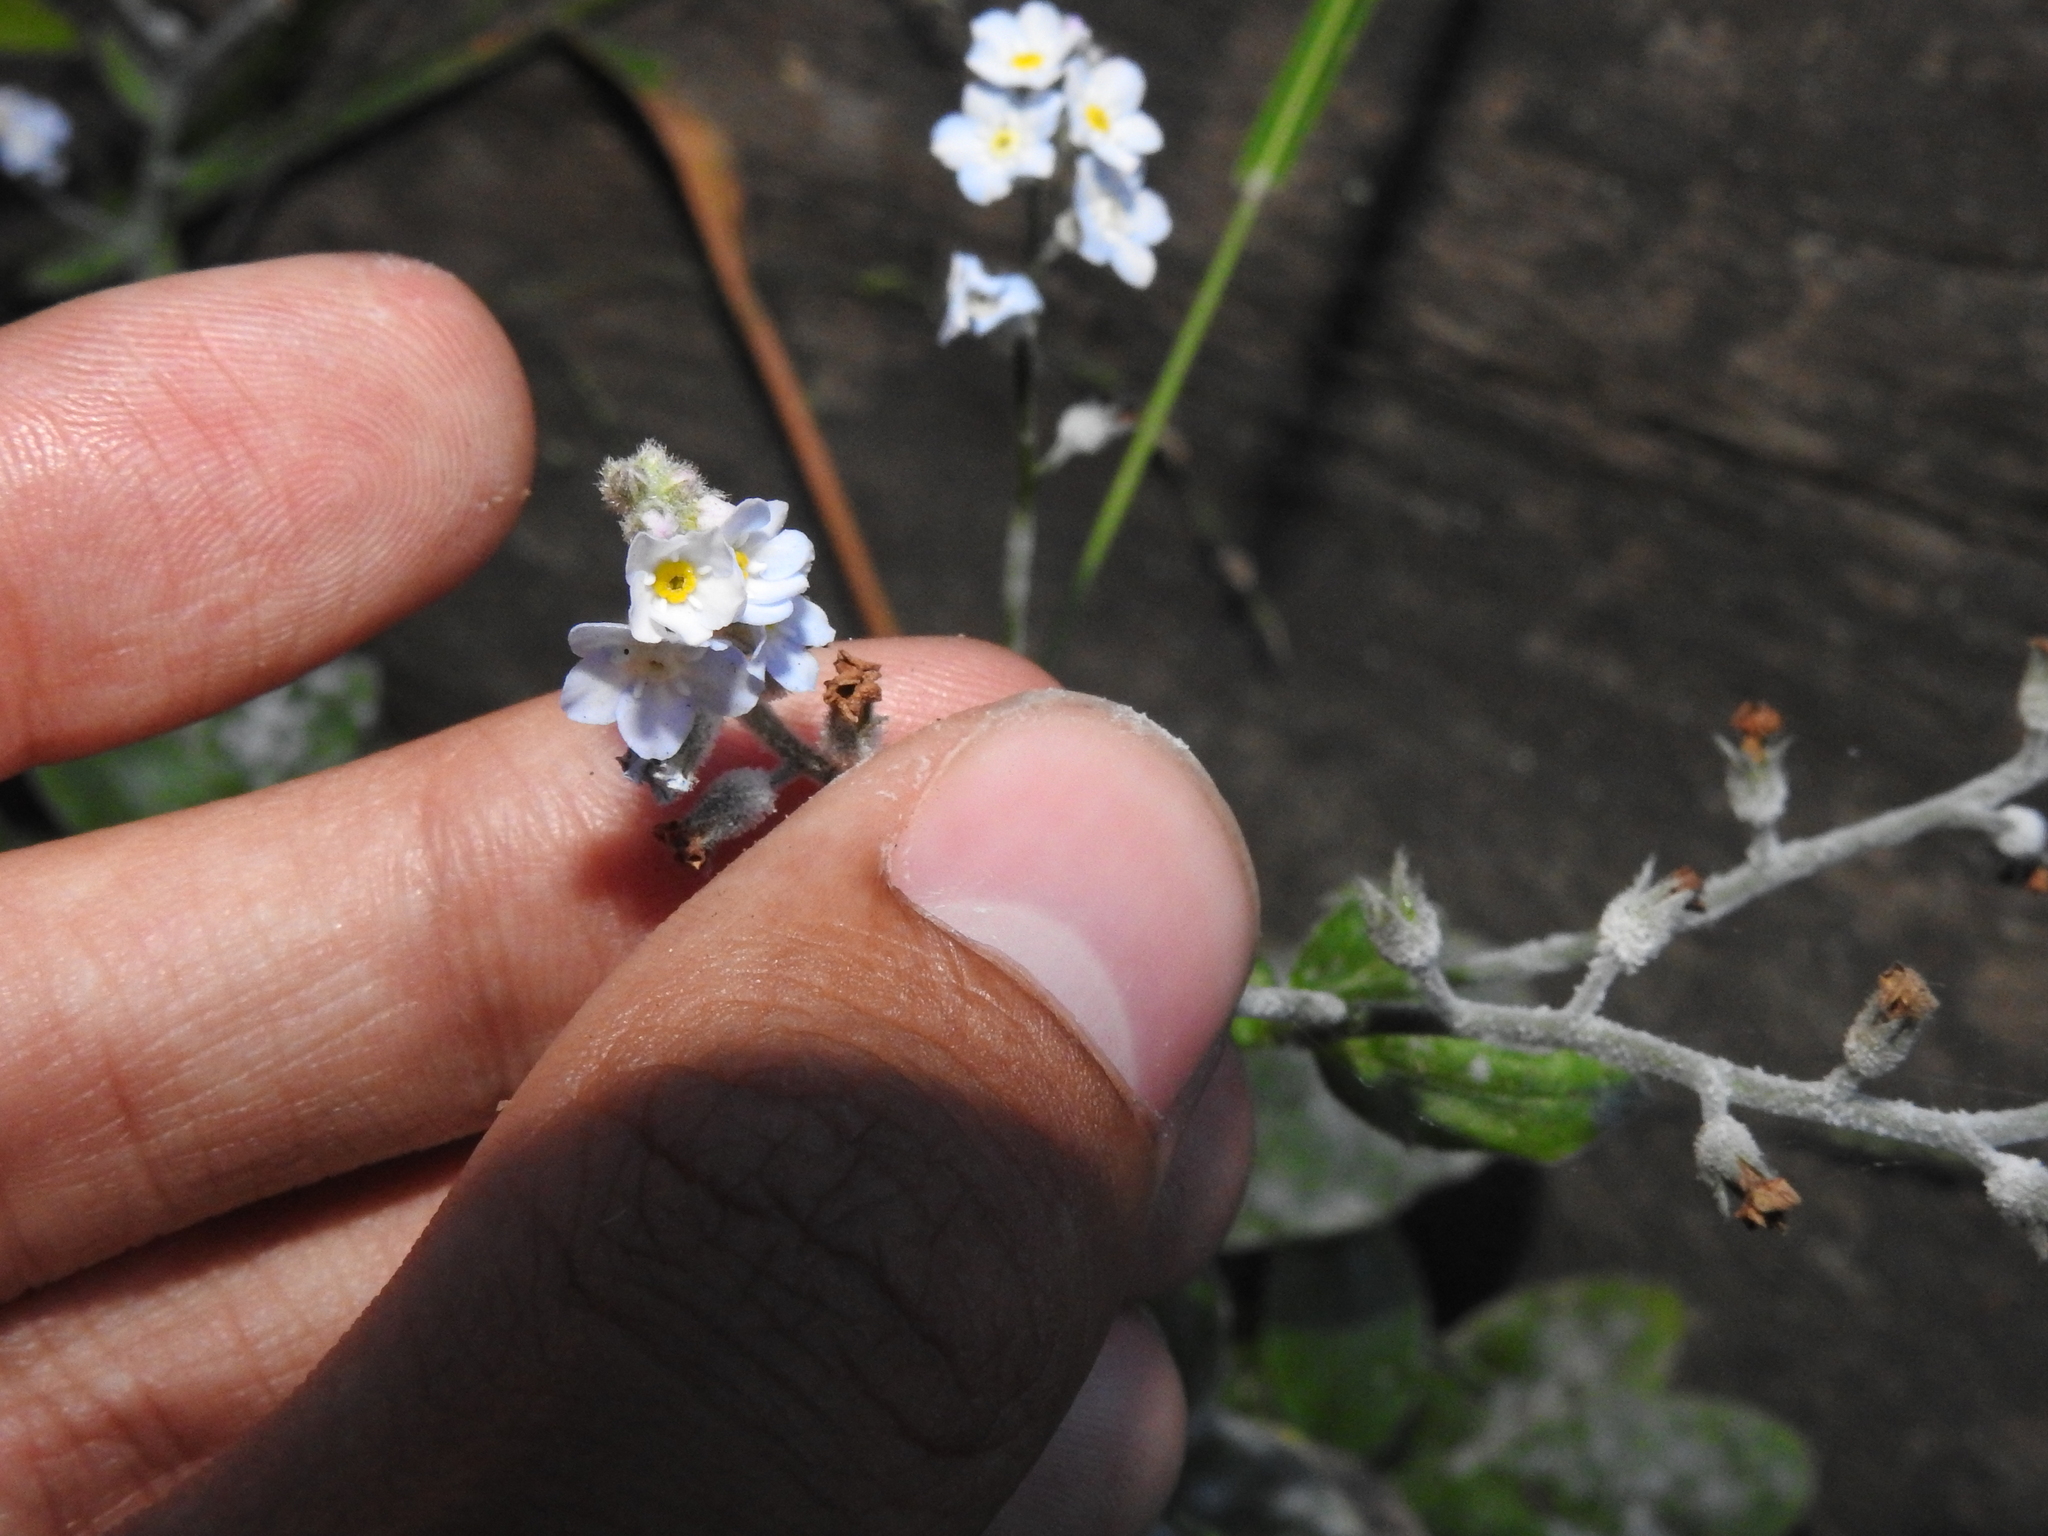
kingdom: Plantae
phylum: Tracheophyta
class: Magnoliopsida
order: Boraginales
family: Boraginaceae
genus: Myosotis
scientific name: Myosotis latifolia
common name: Broadleaf forget-me-not
